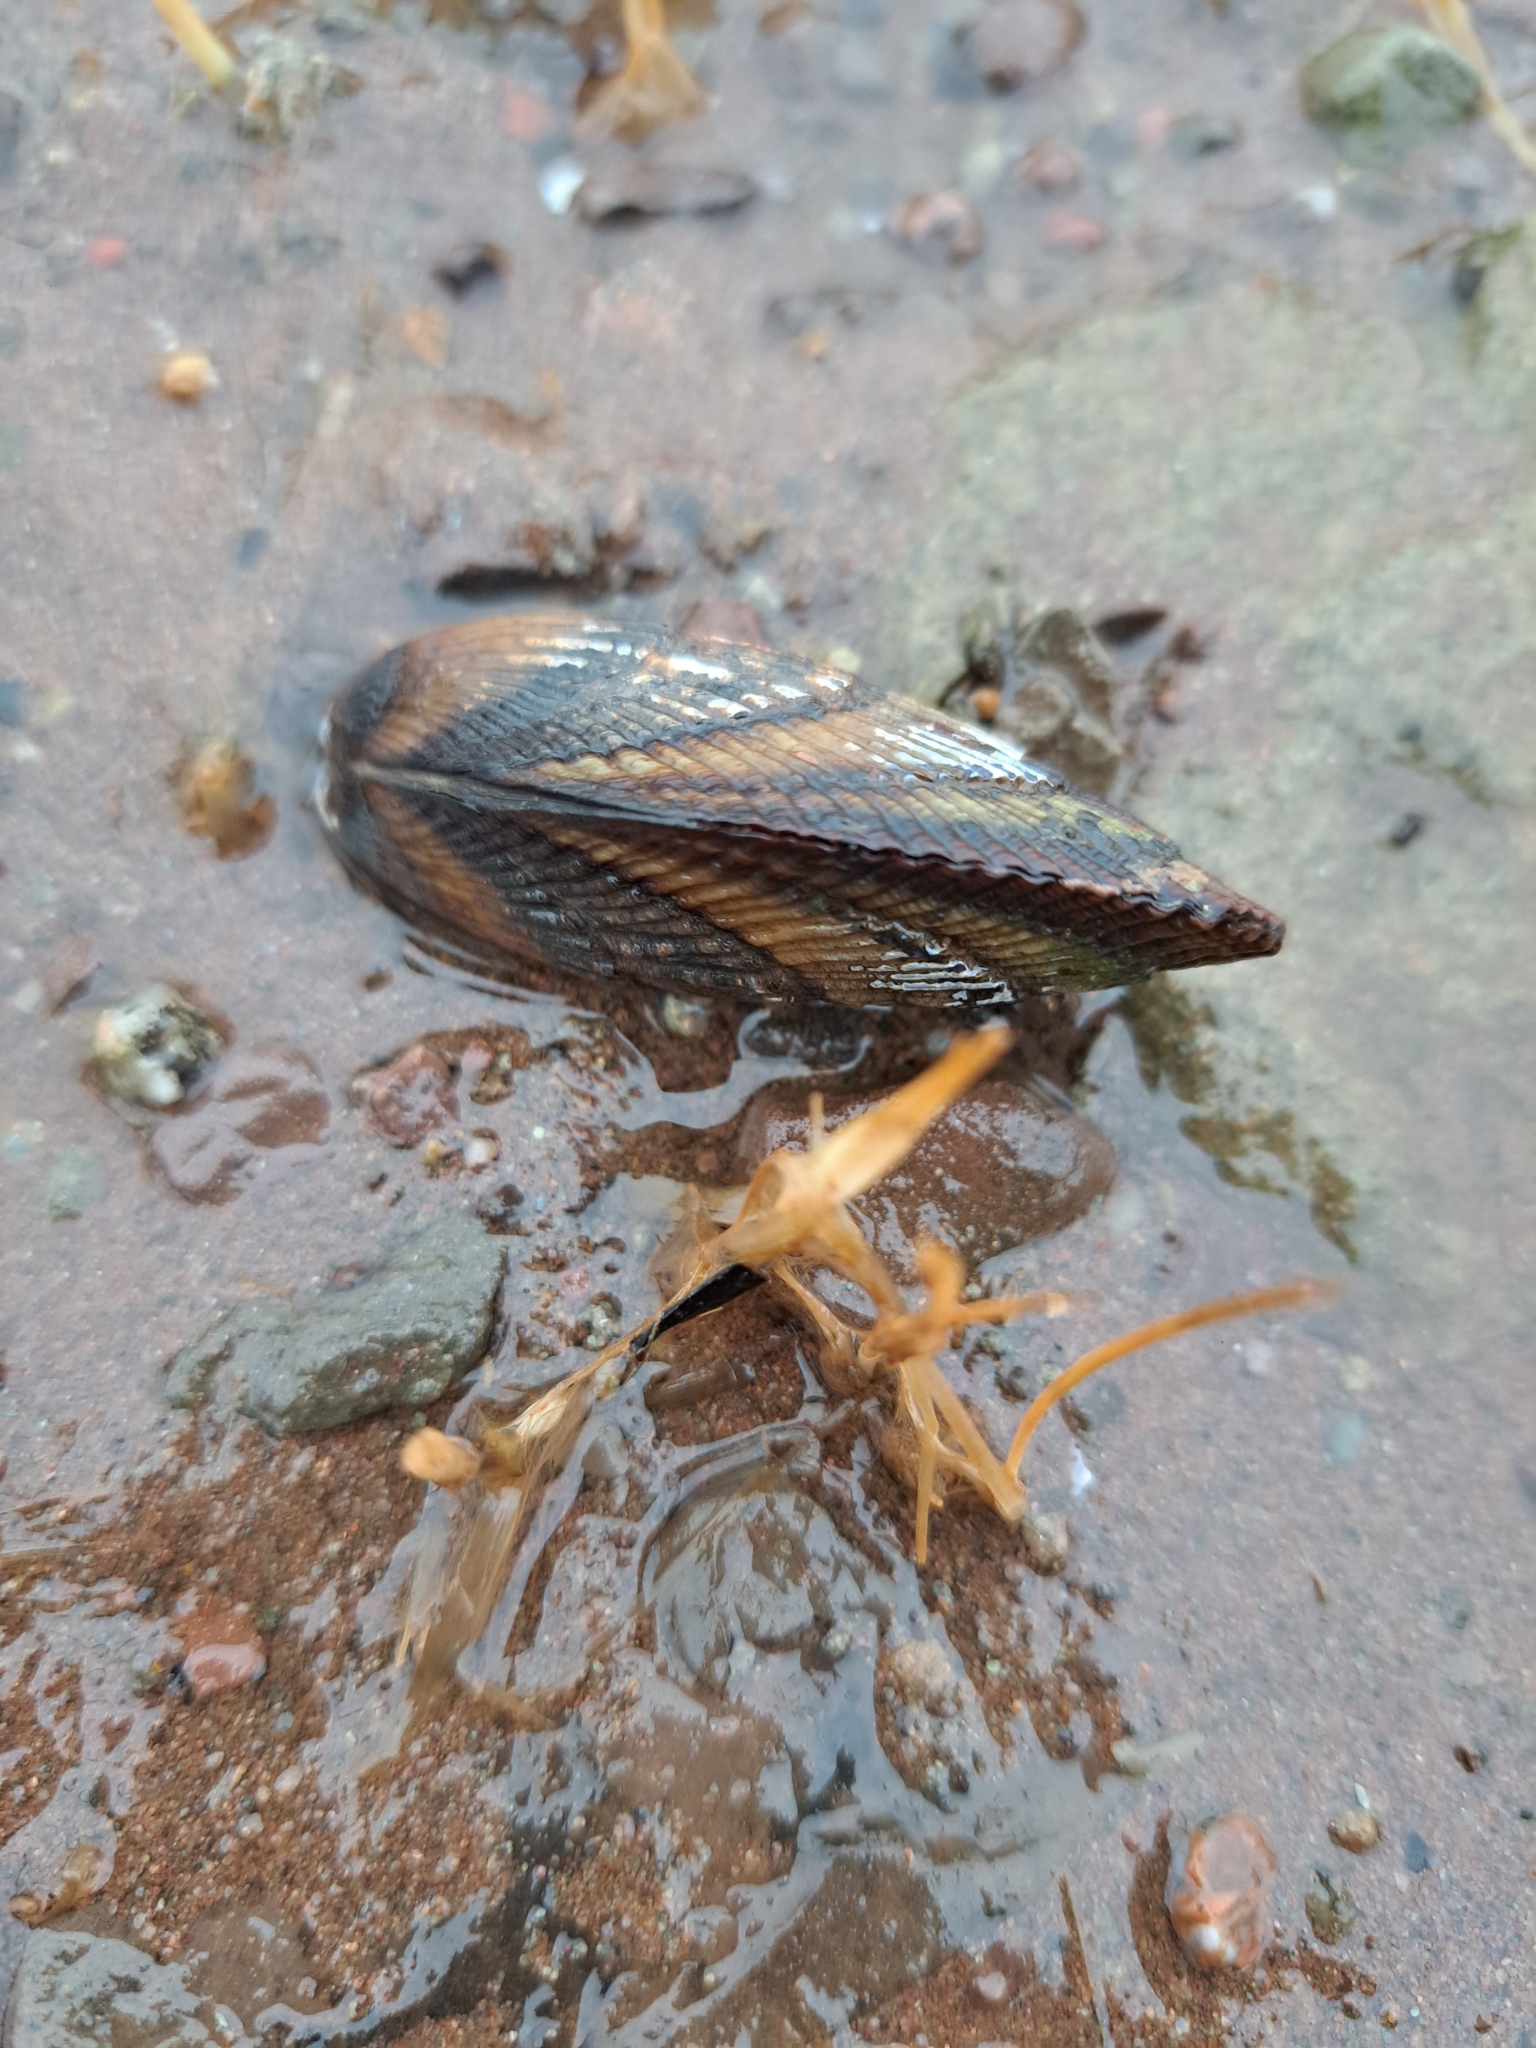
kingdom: Animalia
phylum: Mollusca
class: Bivalvia
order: Mytilida
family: Mytilidae
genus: Geukensia
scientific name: Geukensia demissa
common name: Ribbed mussel
